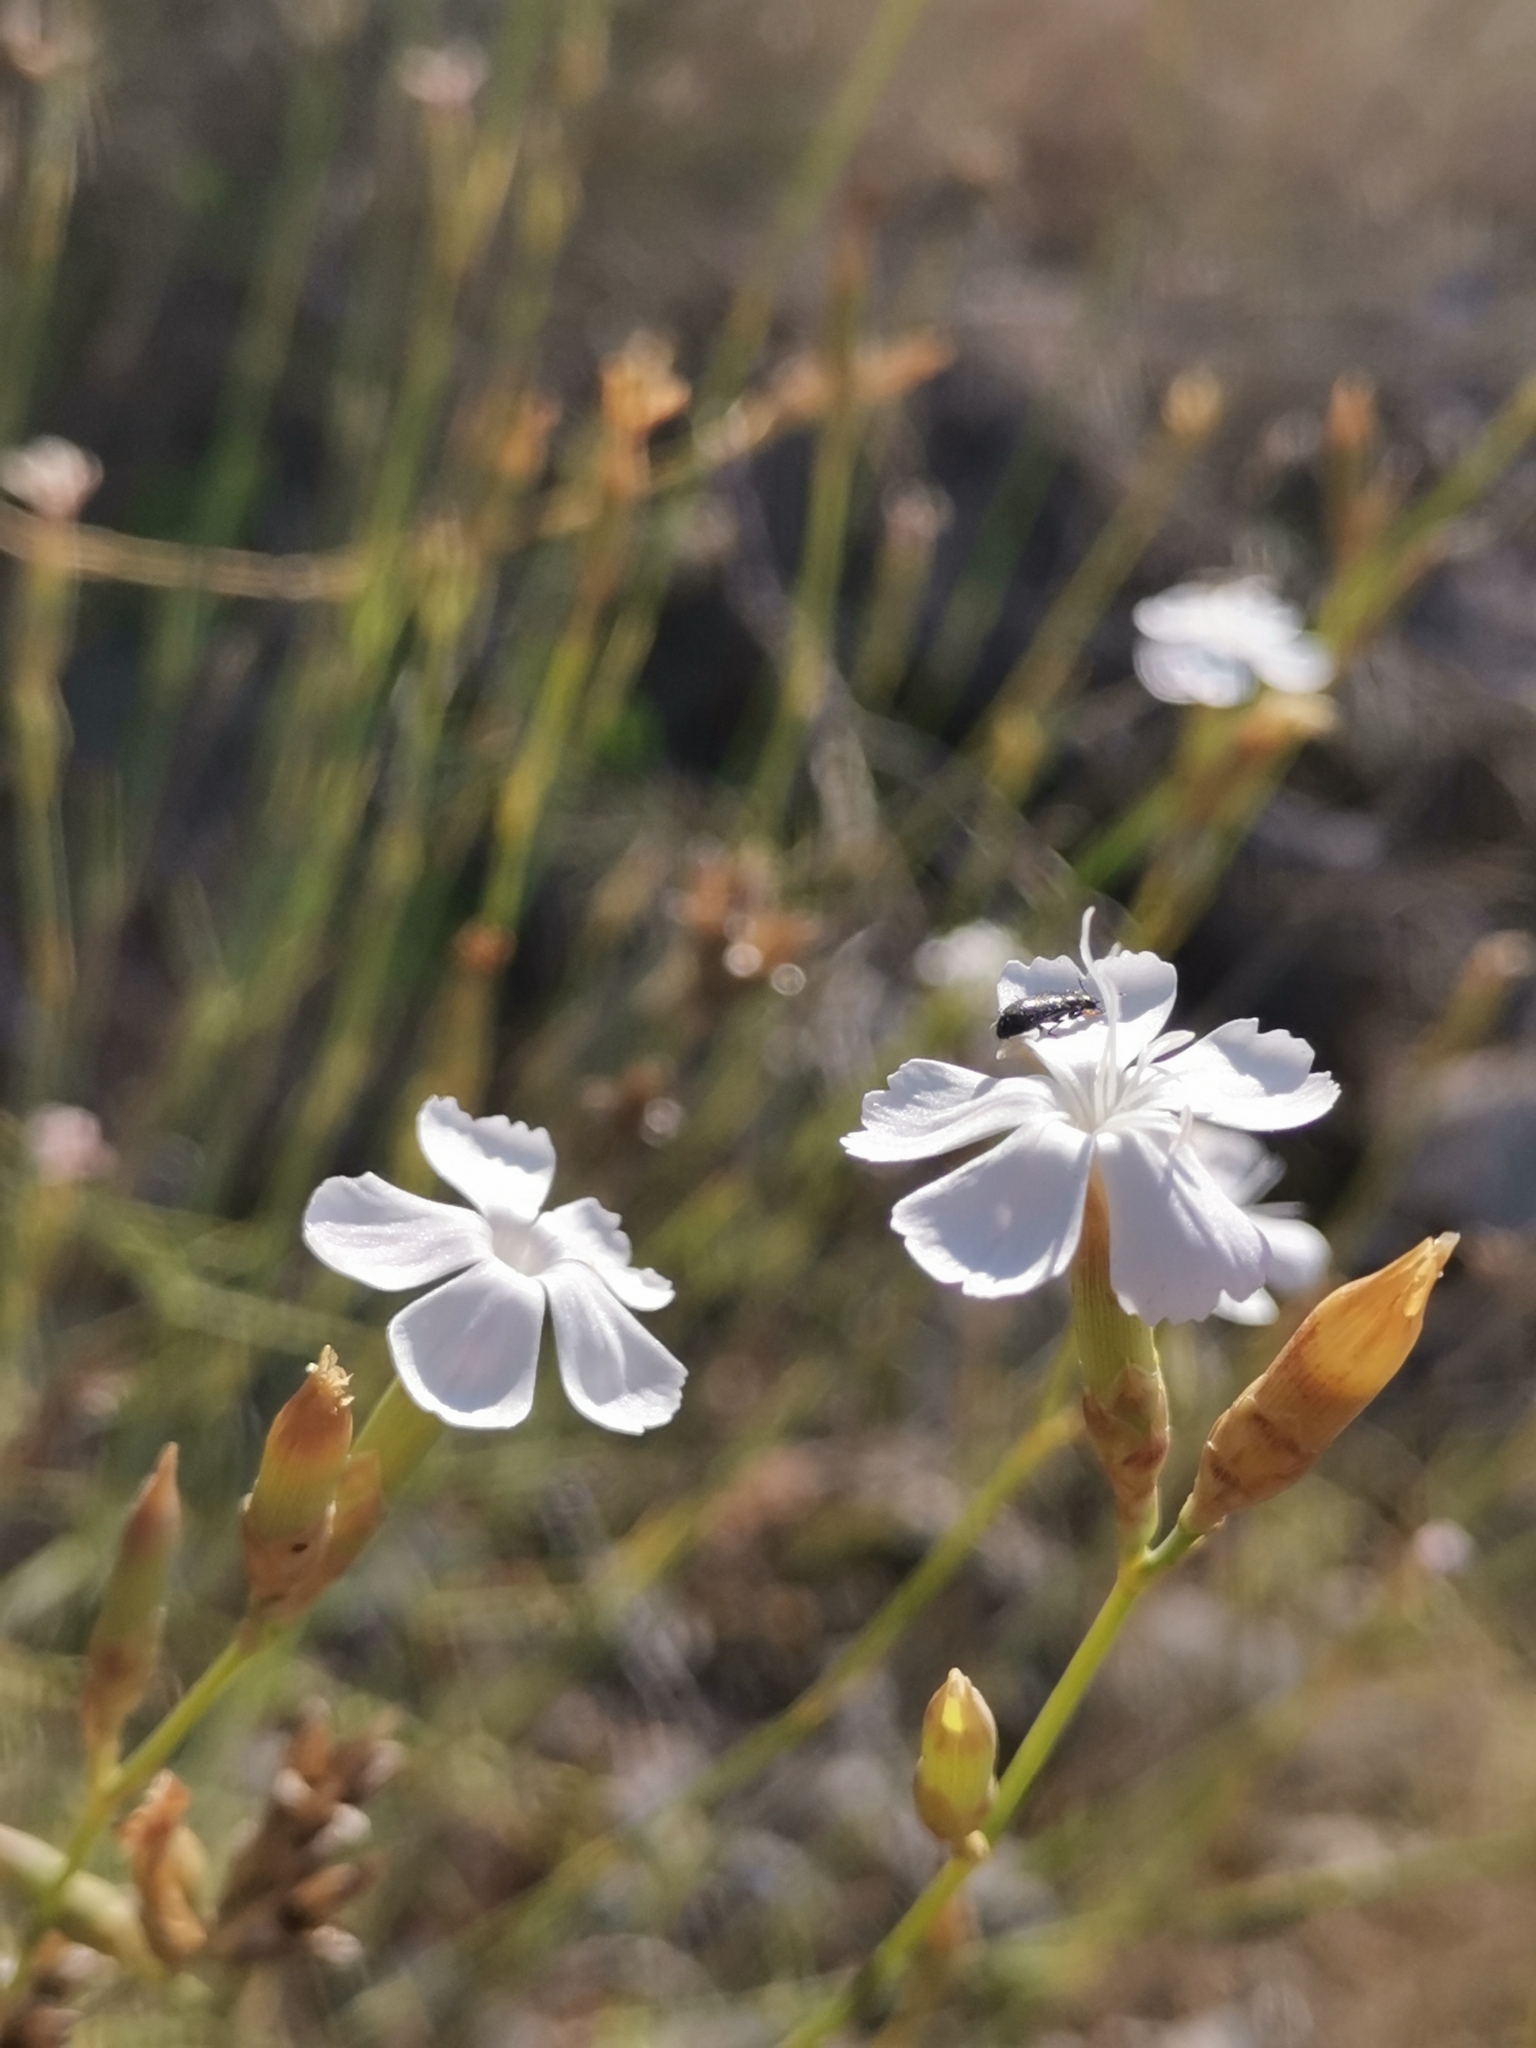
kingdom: Plantae
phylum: Tracheophyta
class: Magnoliopsida
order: Caryophyllales
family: Caryophyllaceae
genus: Dianthus
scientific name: Dianthus ciliatus
